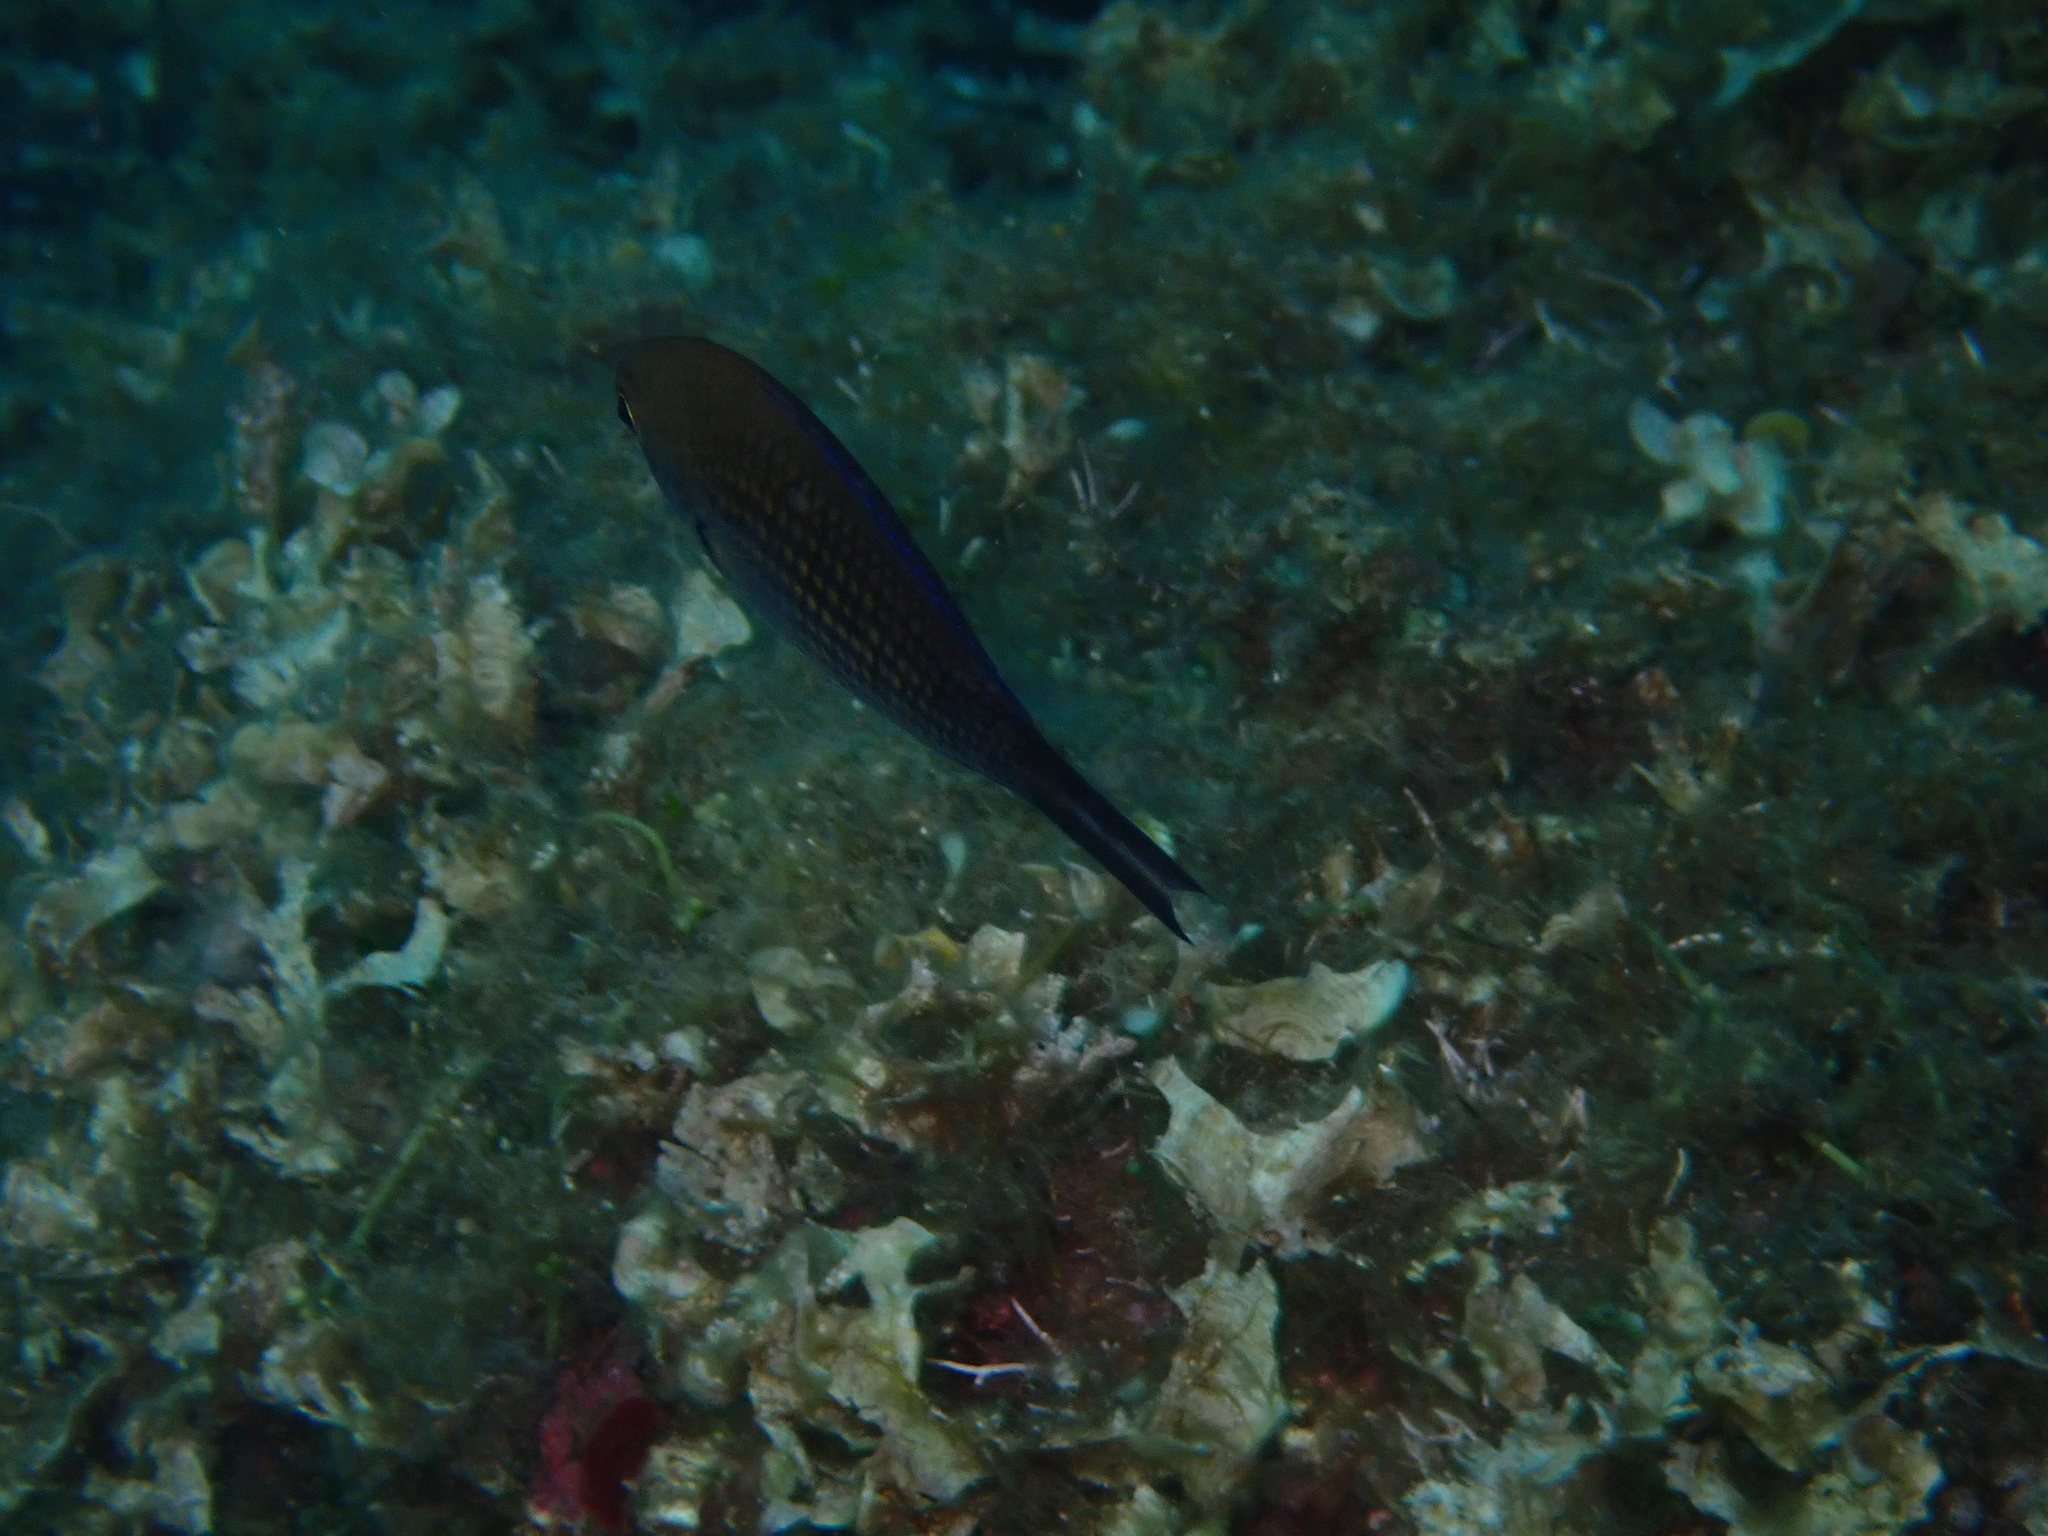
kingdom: Animalia
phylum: Chordata
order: Perciformes
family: Pomacentridae
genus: Chromis
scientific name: Chromis chromis
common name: Damselfish
